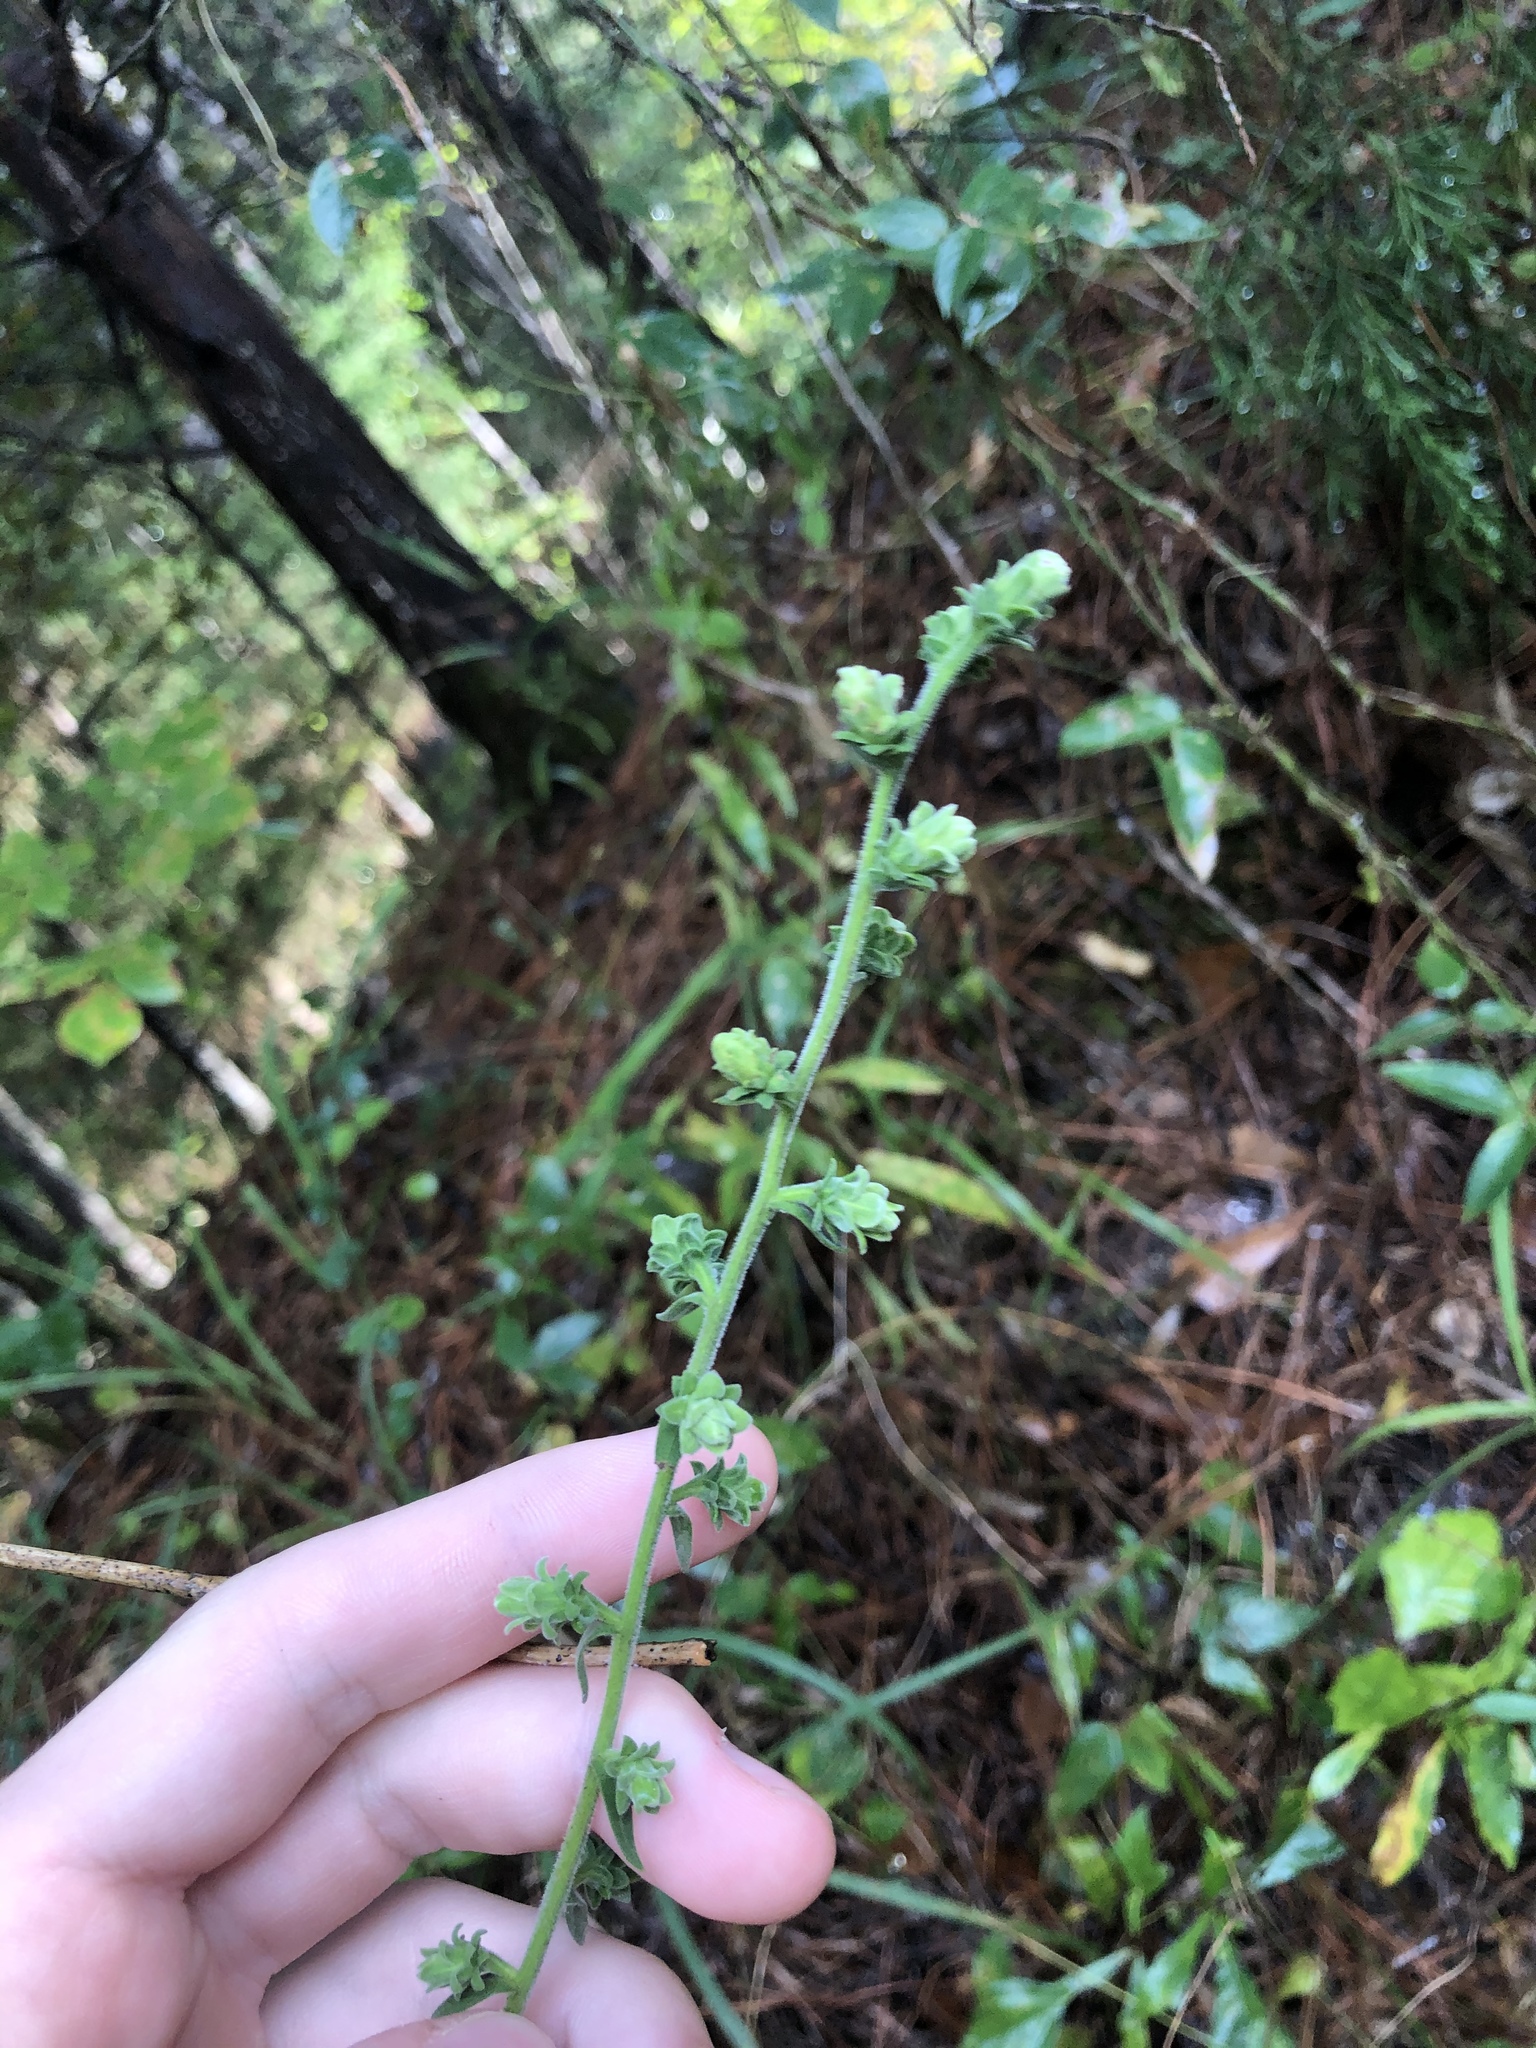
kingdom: Plantae
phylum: Tracheophyta
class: Magnoliopsida
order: Asterales
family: Asteraceae
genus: Liatris
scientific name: Liatris squarrulosa
